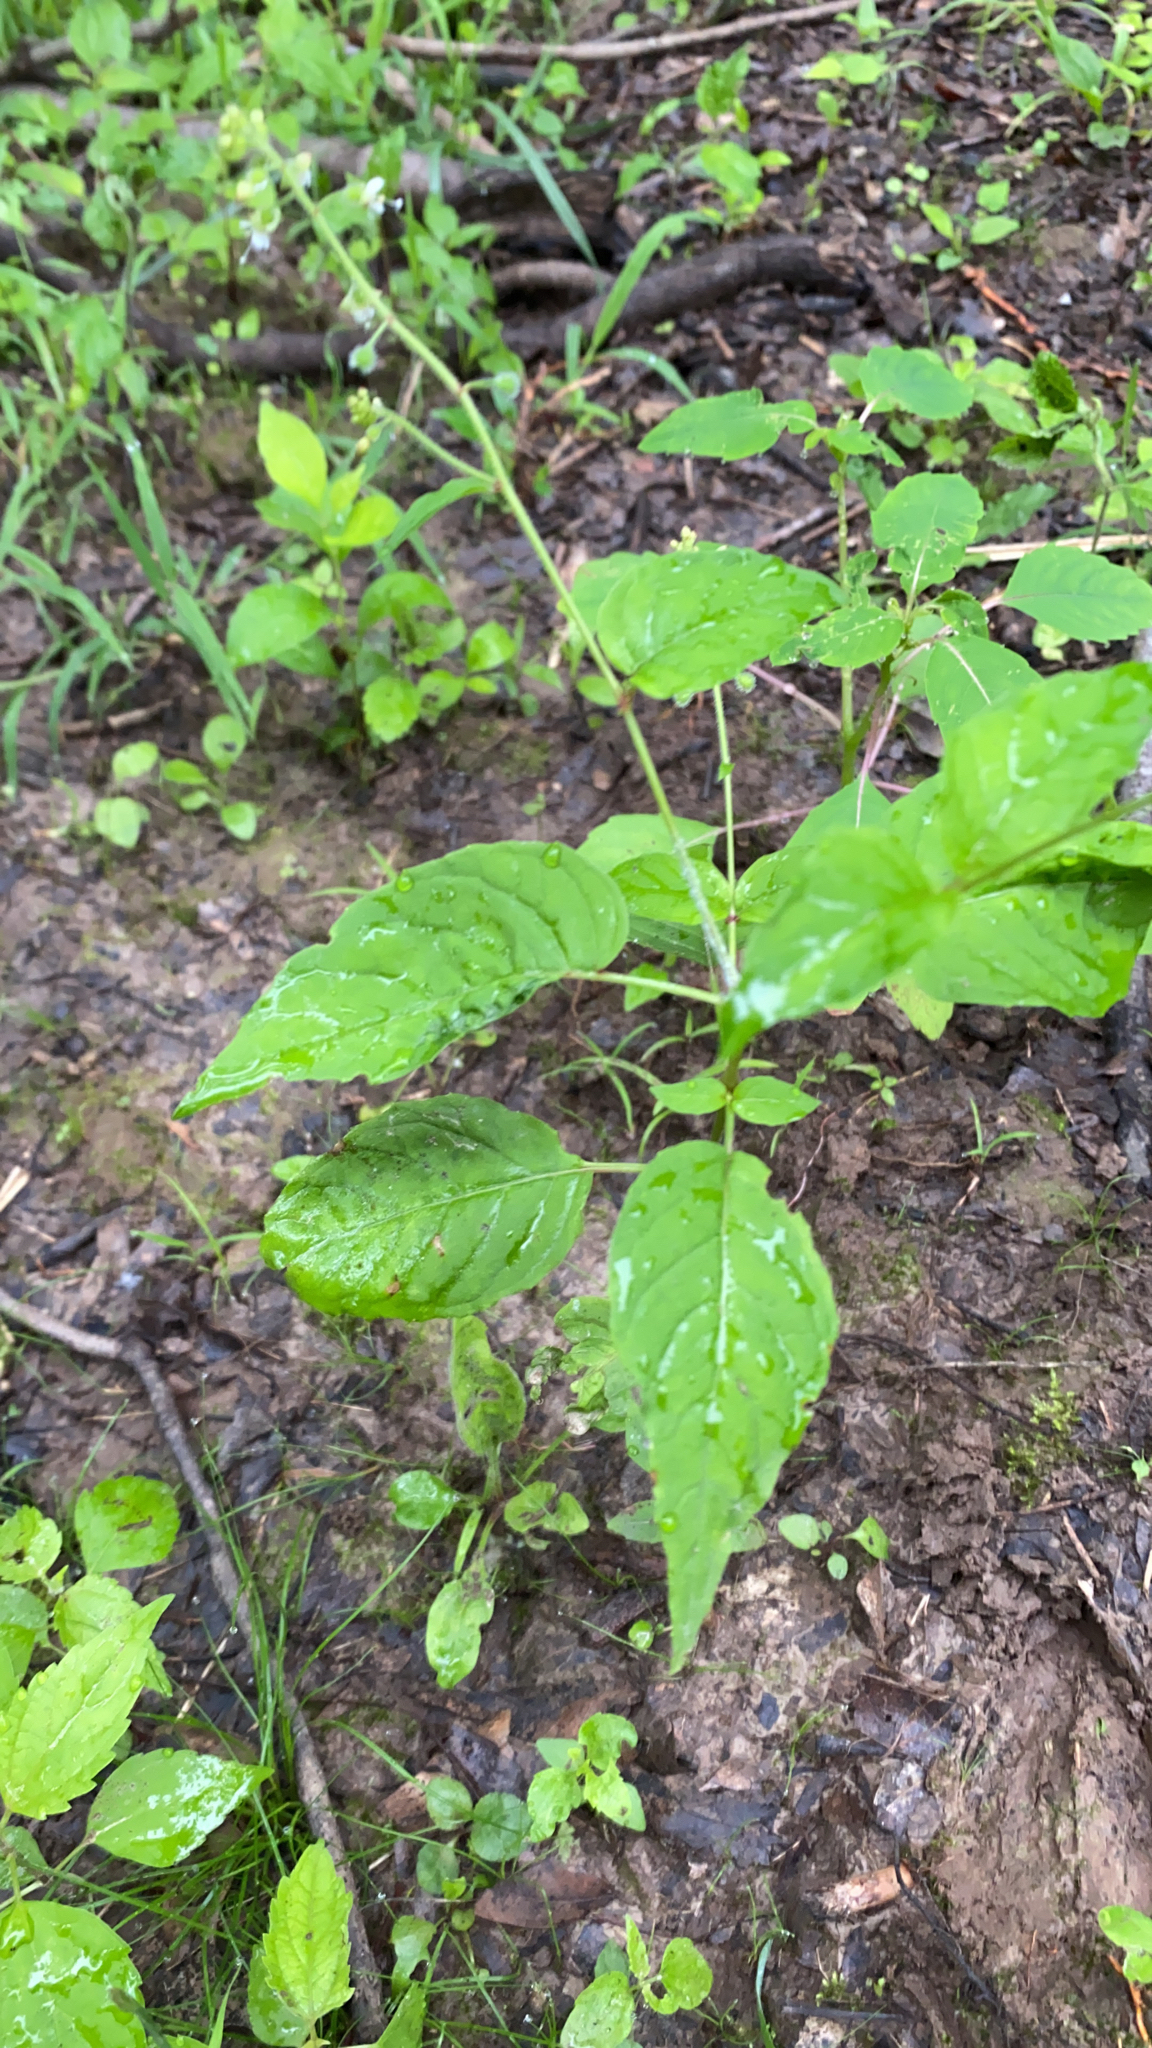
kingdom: Plantae
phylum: Tracheophyta
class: Magnoliopsida
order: Myrtales
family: Onagraceae
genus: Circaea
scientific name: Circaea canadensis
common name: Broad-leaved enchanter's nightshade
